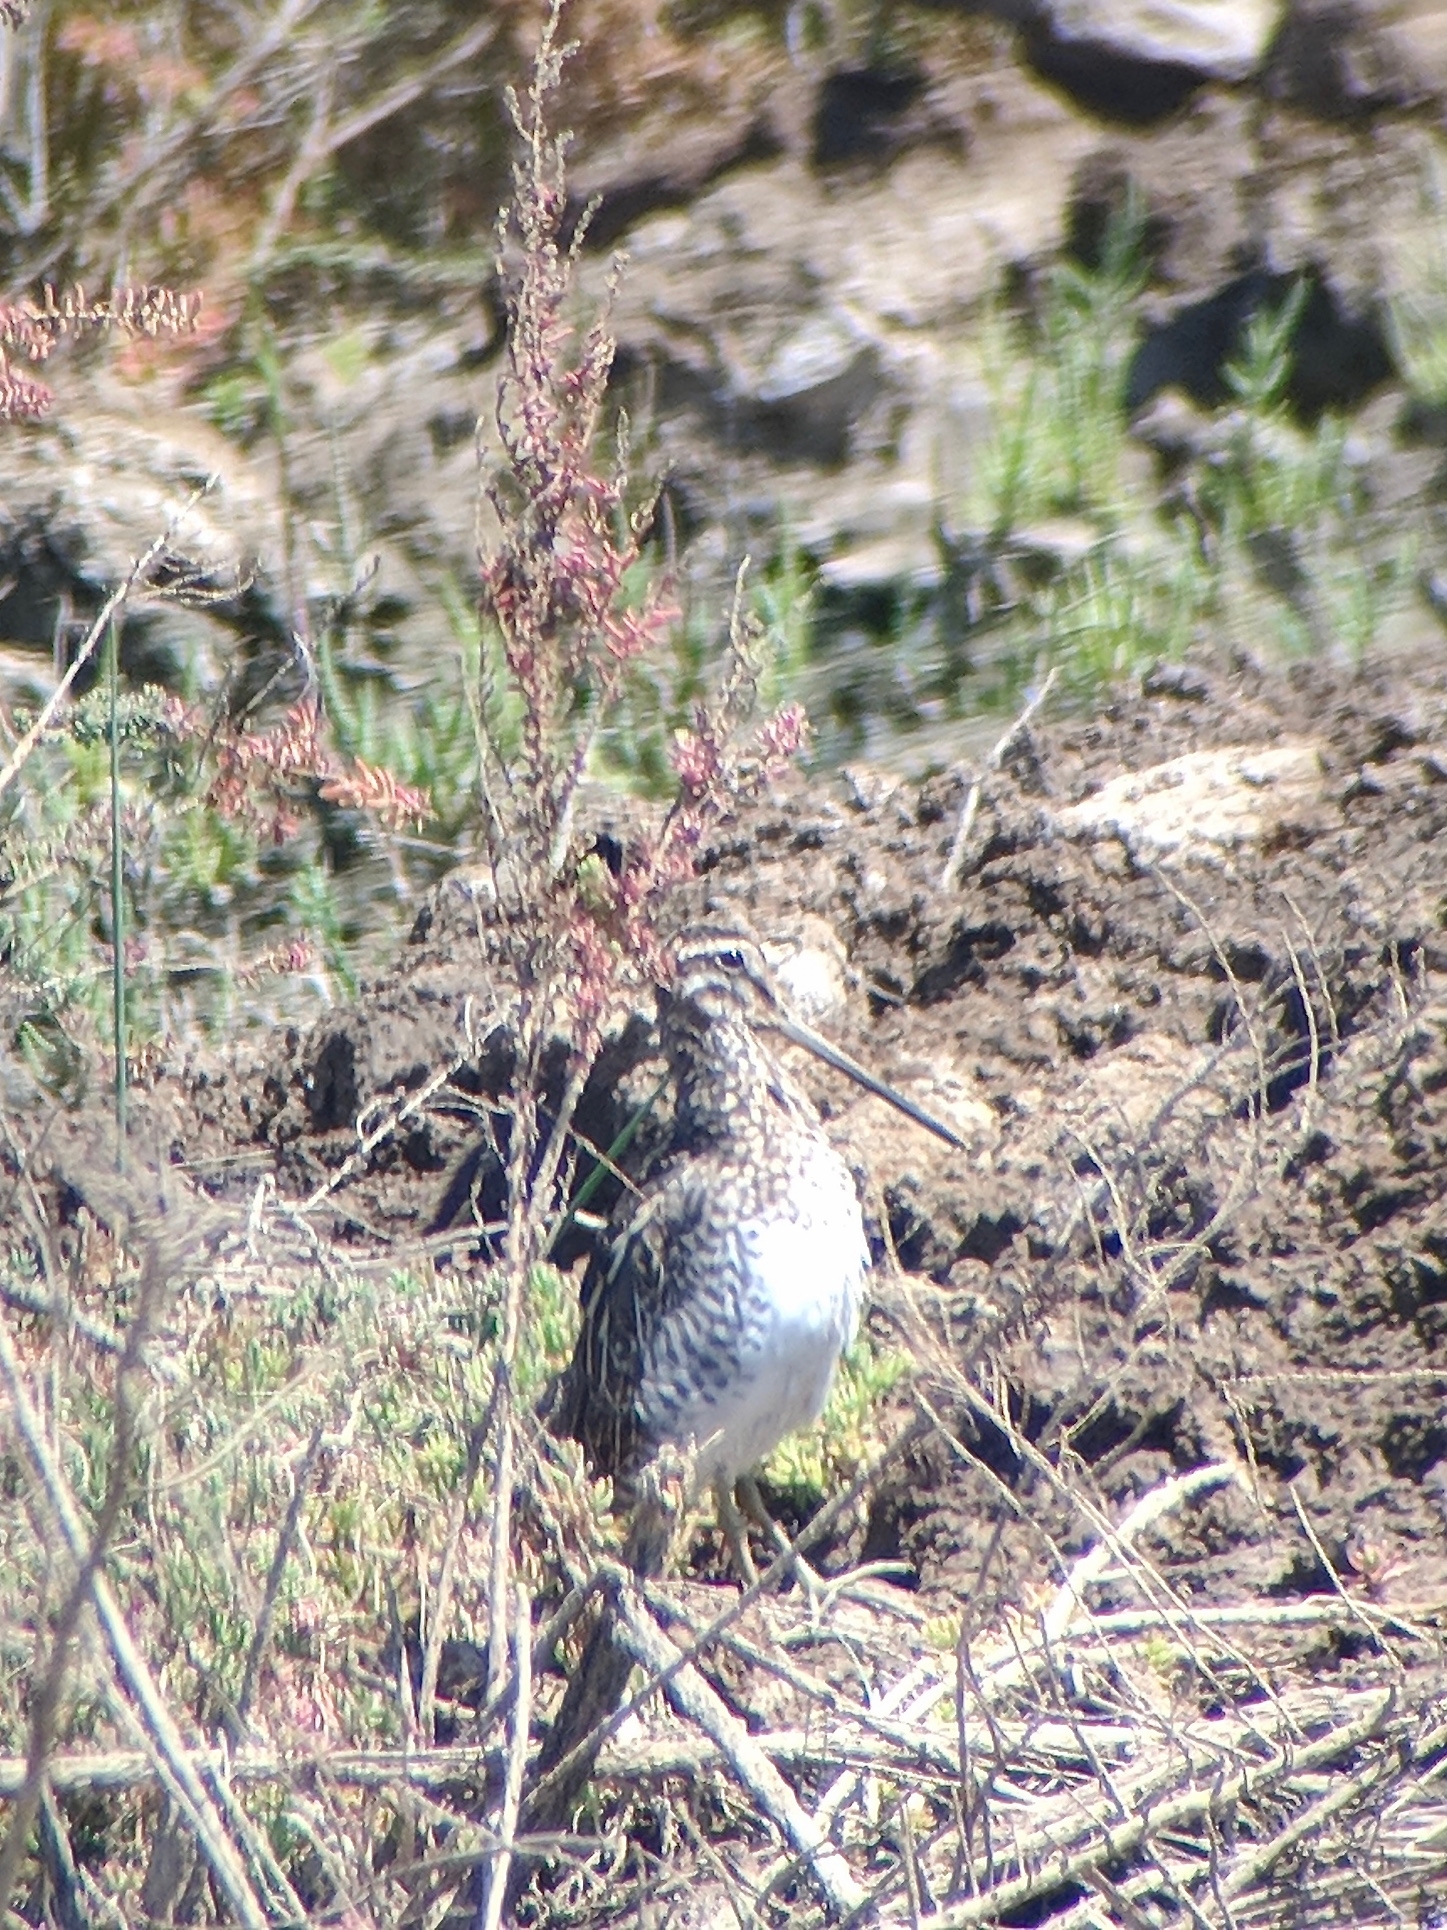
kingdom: Animalia
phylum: Chordata
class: Aves
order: Charadriiformes
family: Scolopacidae
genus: Gallinago
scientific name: Gallinago gallinago
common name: Common snipe
